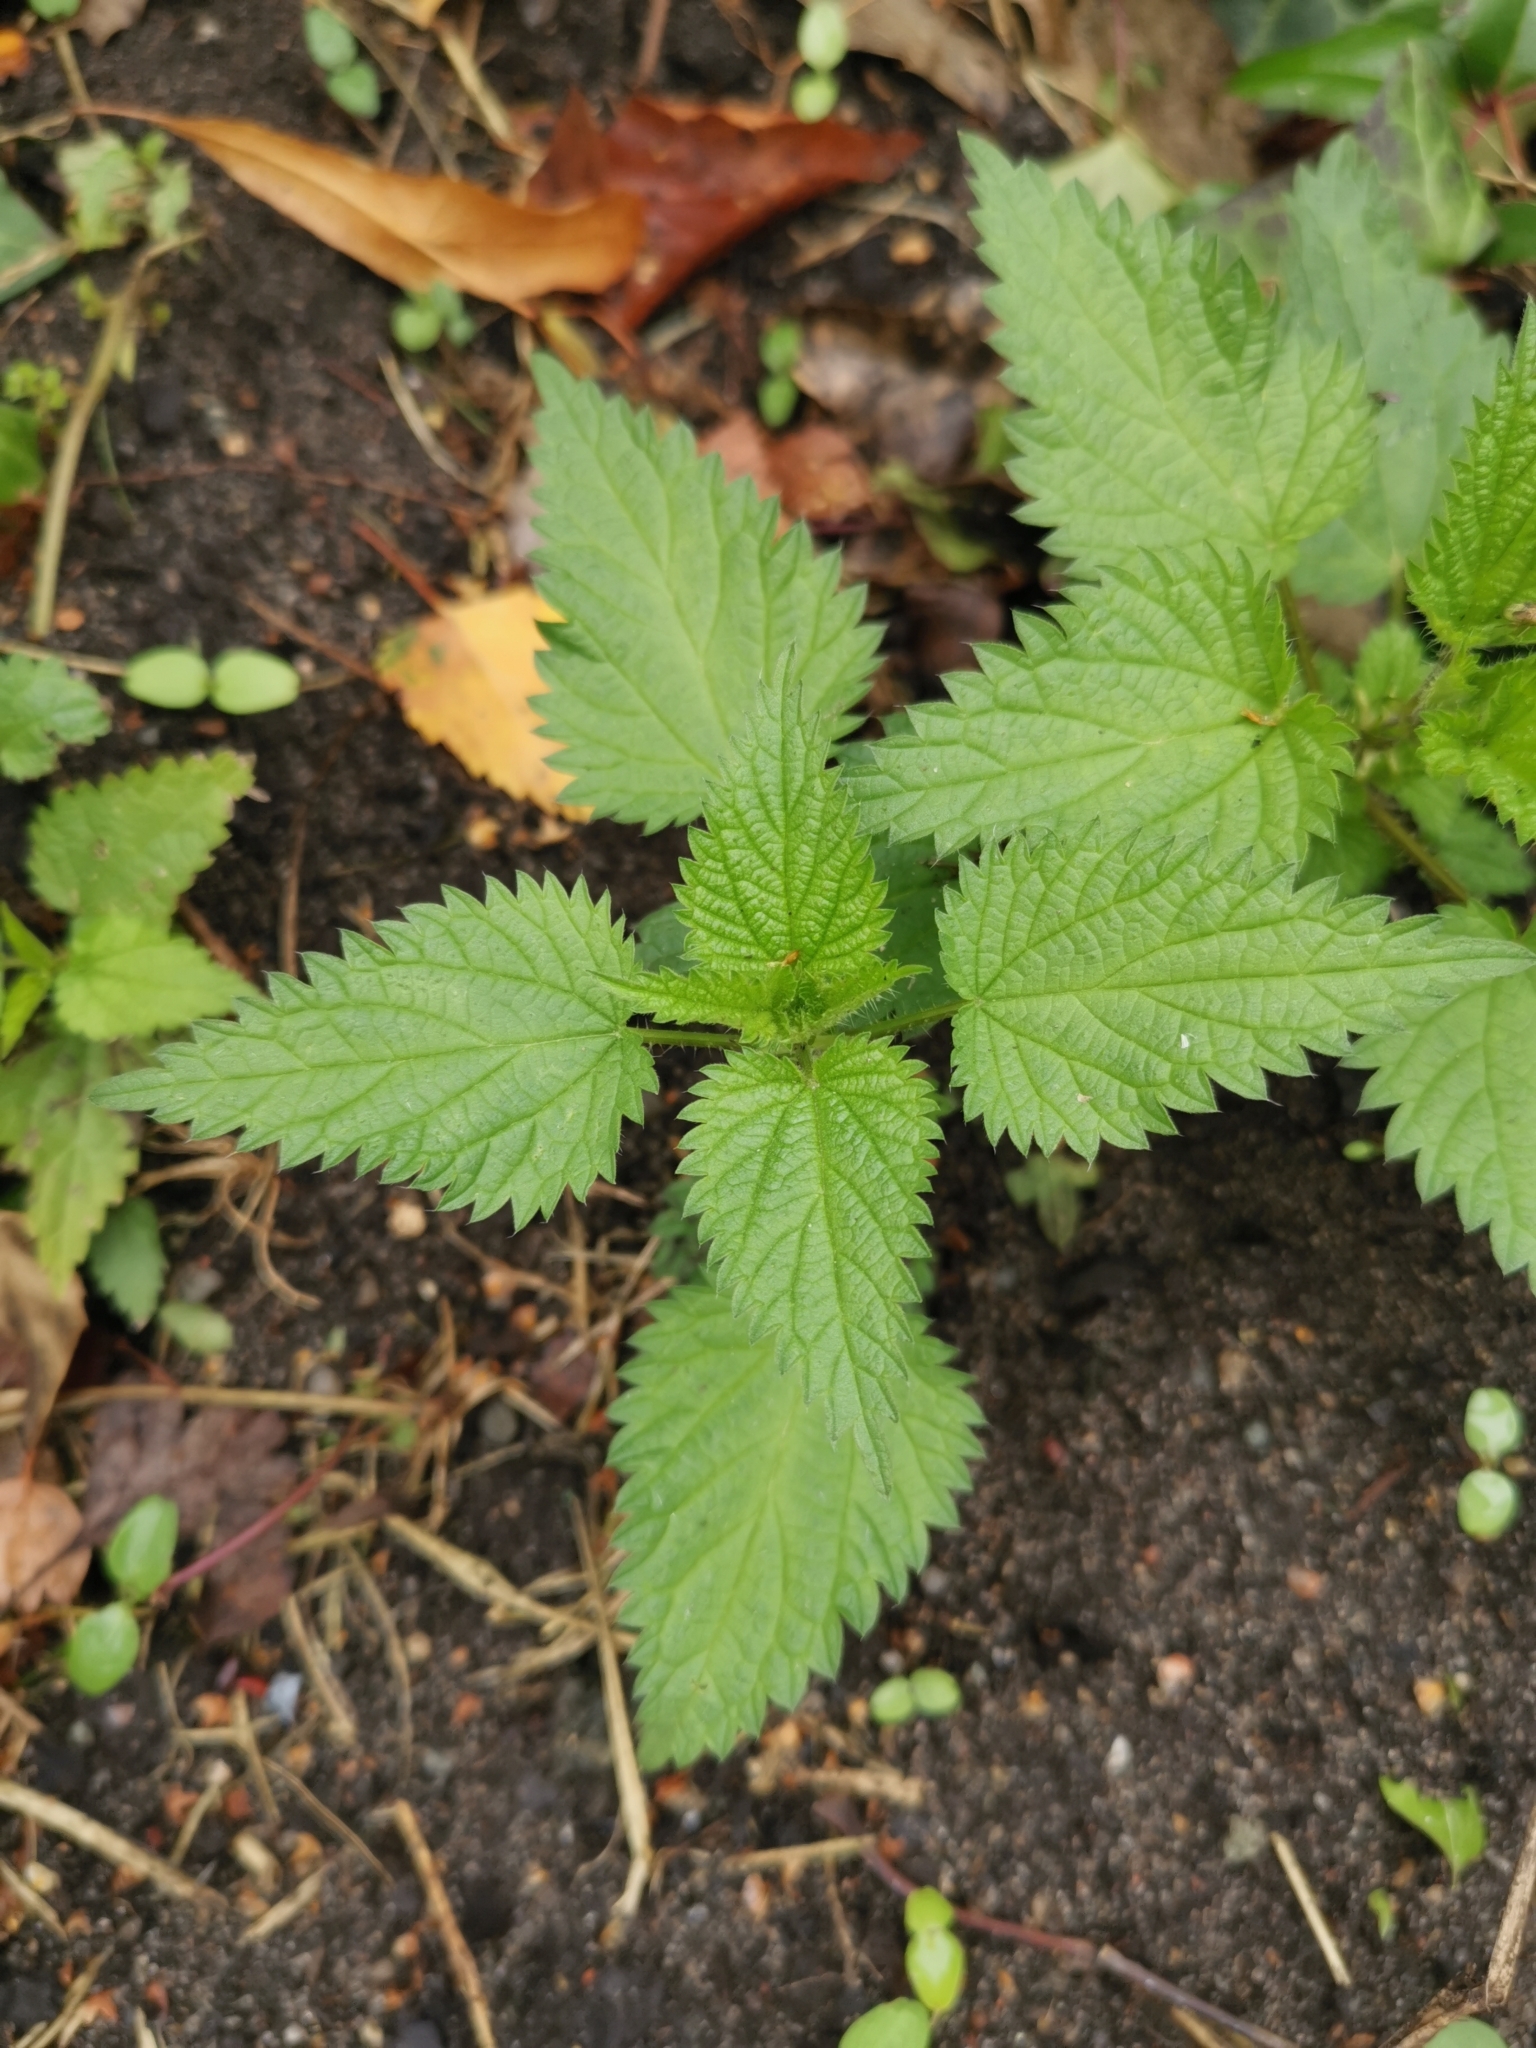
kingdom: Plantae
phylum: Tracheophyta
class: Magnoliopsida
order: Rosales
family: Urticaceae
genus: Urtica
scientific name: Urtica dioica
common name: Common nettle
